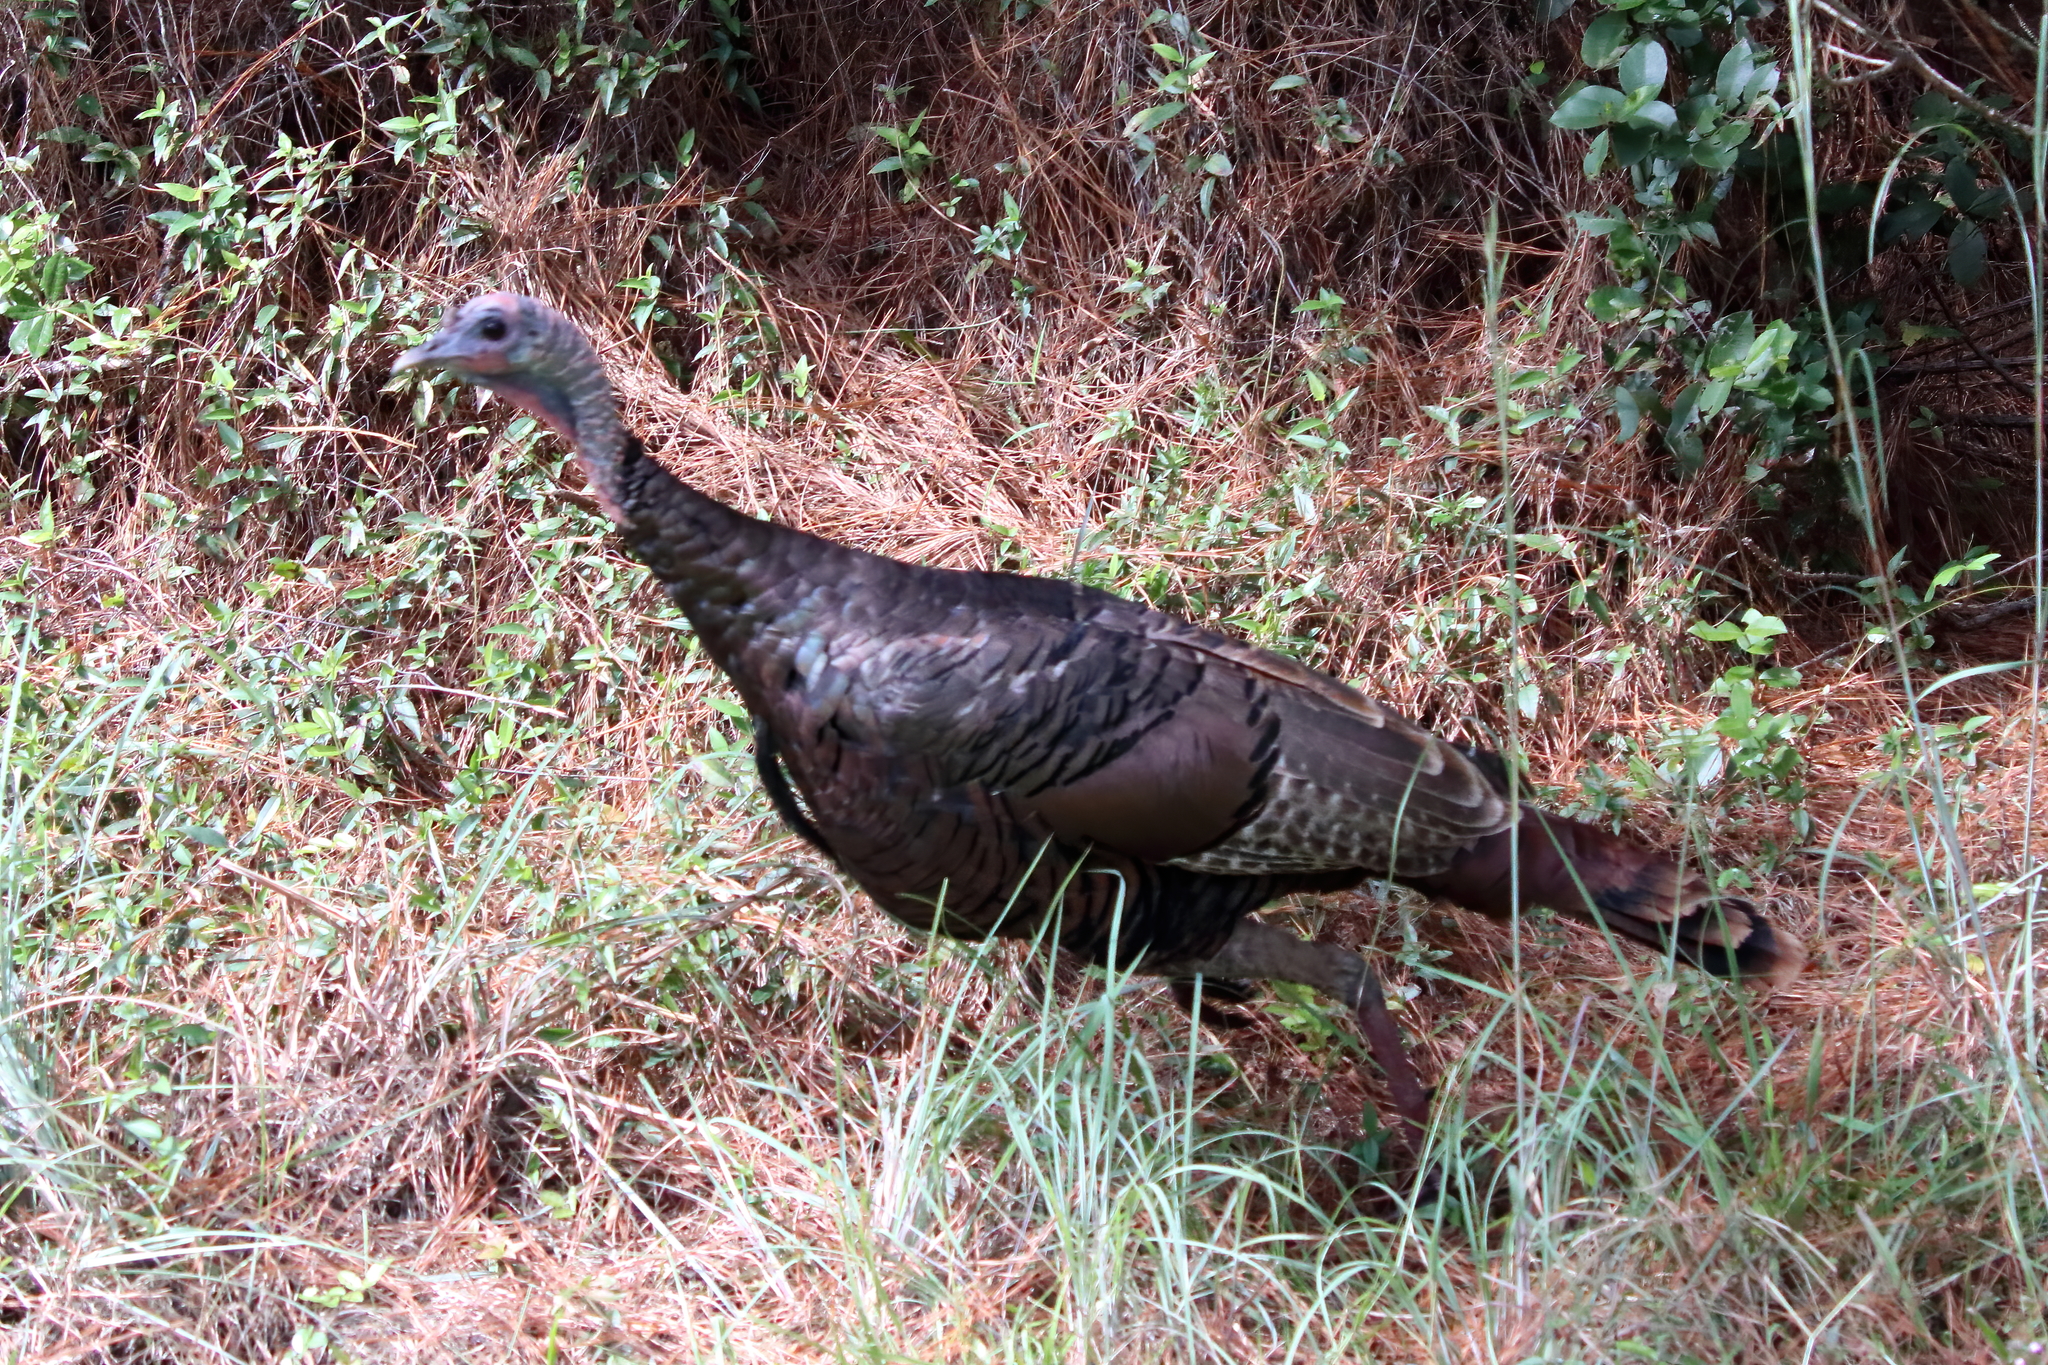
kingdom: Animalia
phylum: Chordata
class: Aves
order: Galliformes
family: Phasianidae
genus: Meleagris
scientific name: Meleagris gallopavo
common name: Wild turkey
